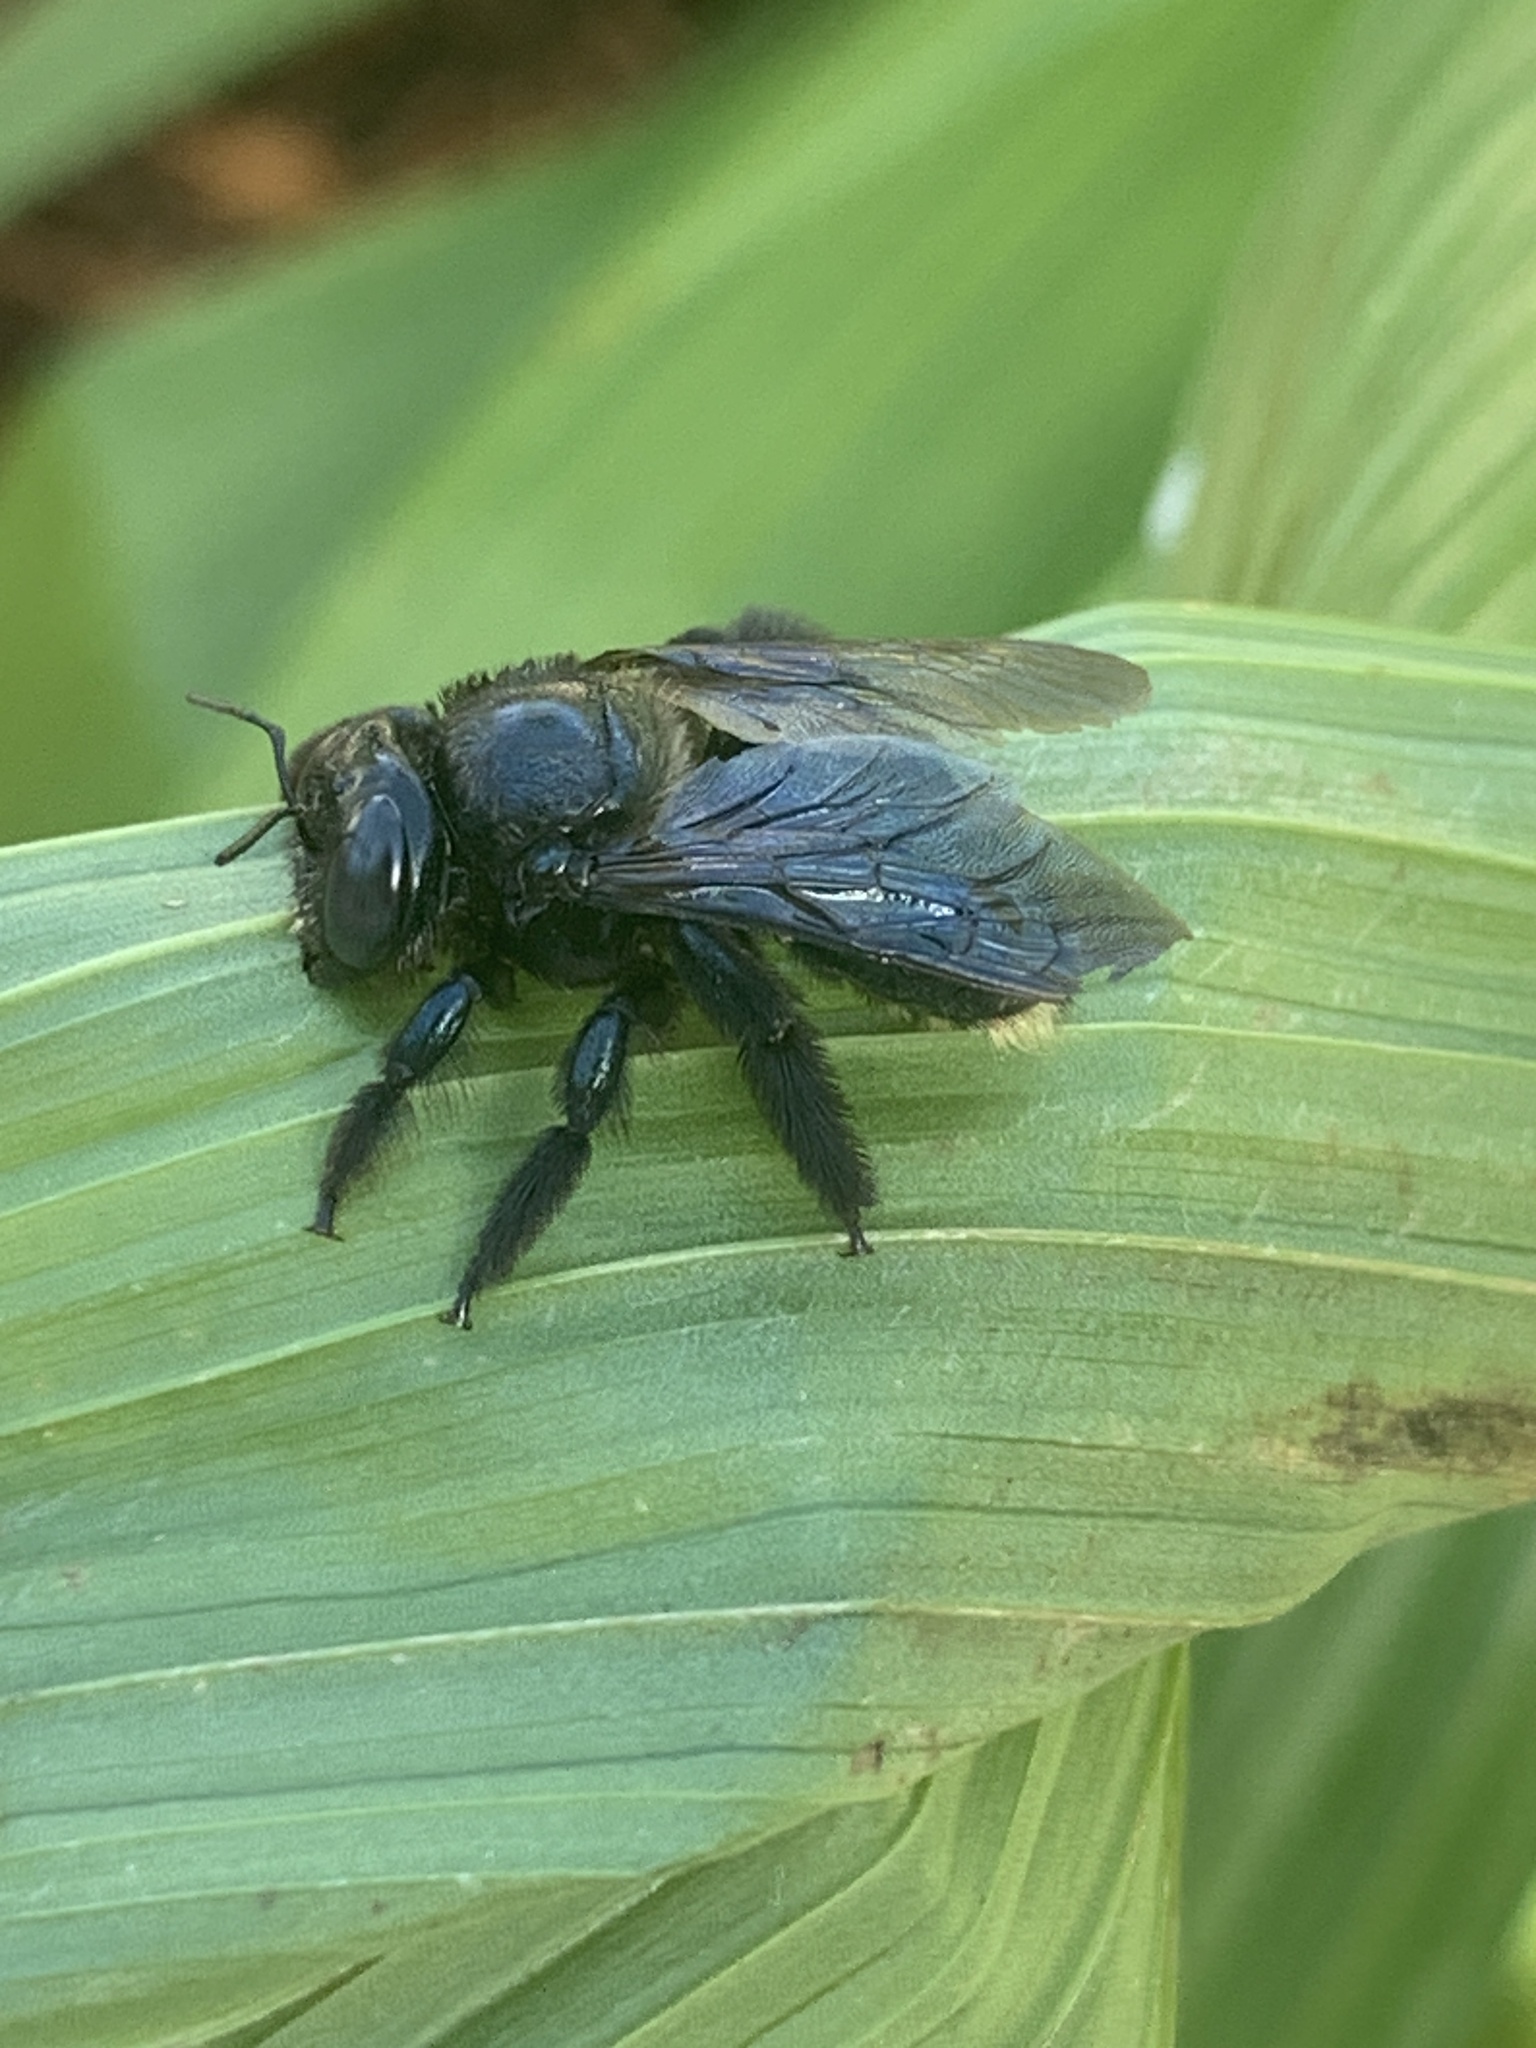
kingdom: Animalia
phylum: Arthropoda
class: Insecta
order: Hymenoptera
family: Apidae
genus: Xylocopa
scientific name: Xylocopa micans
